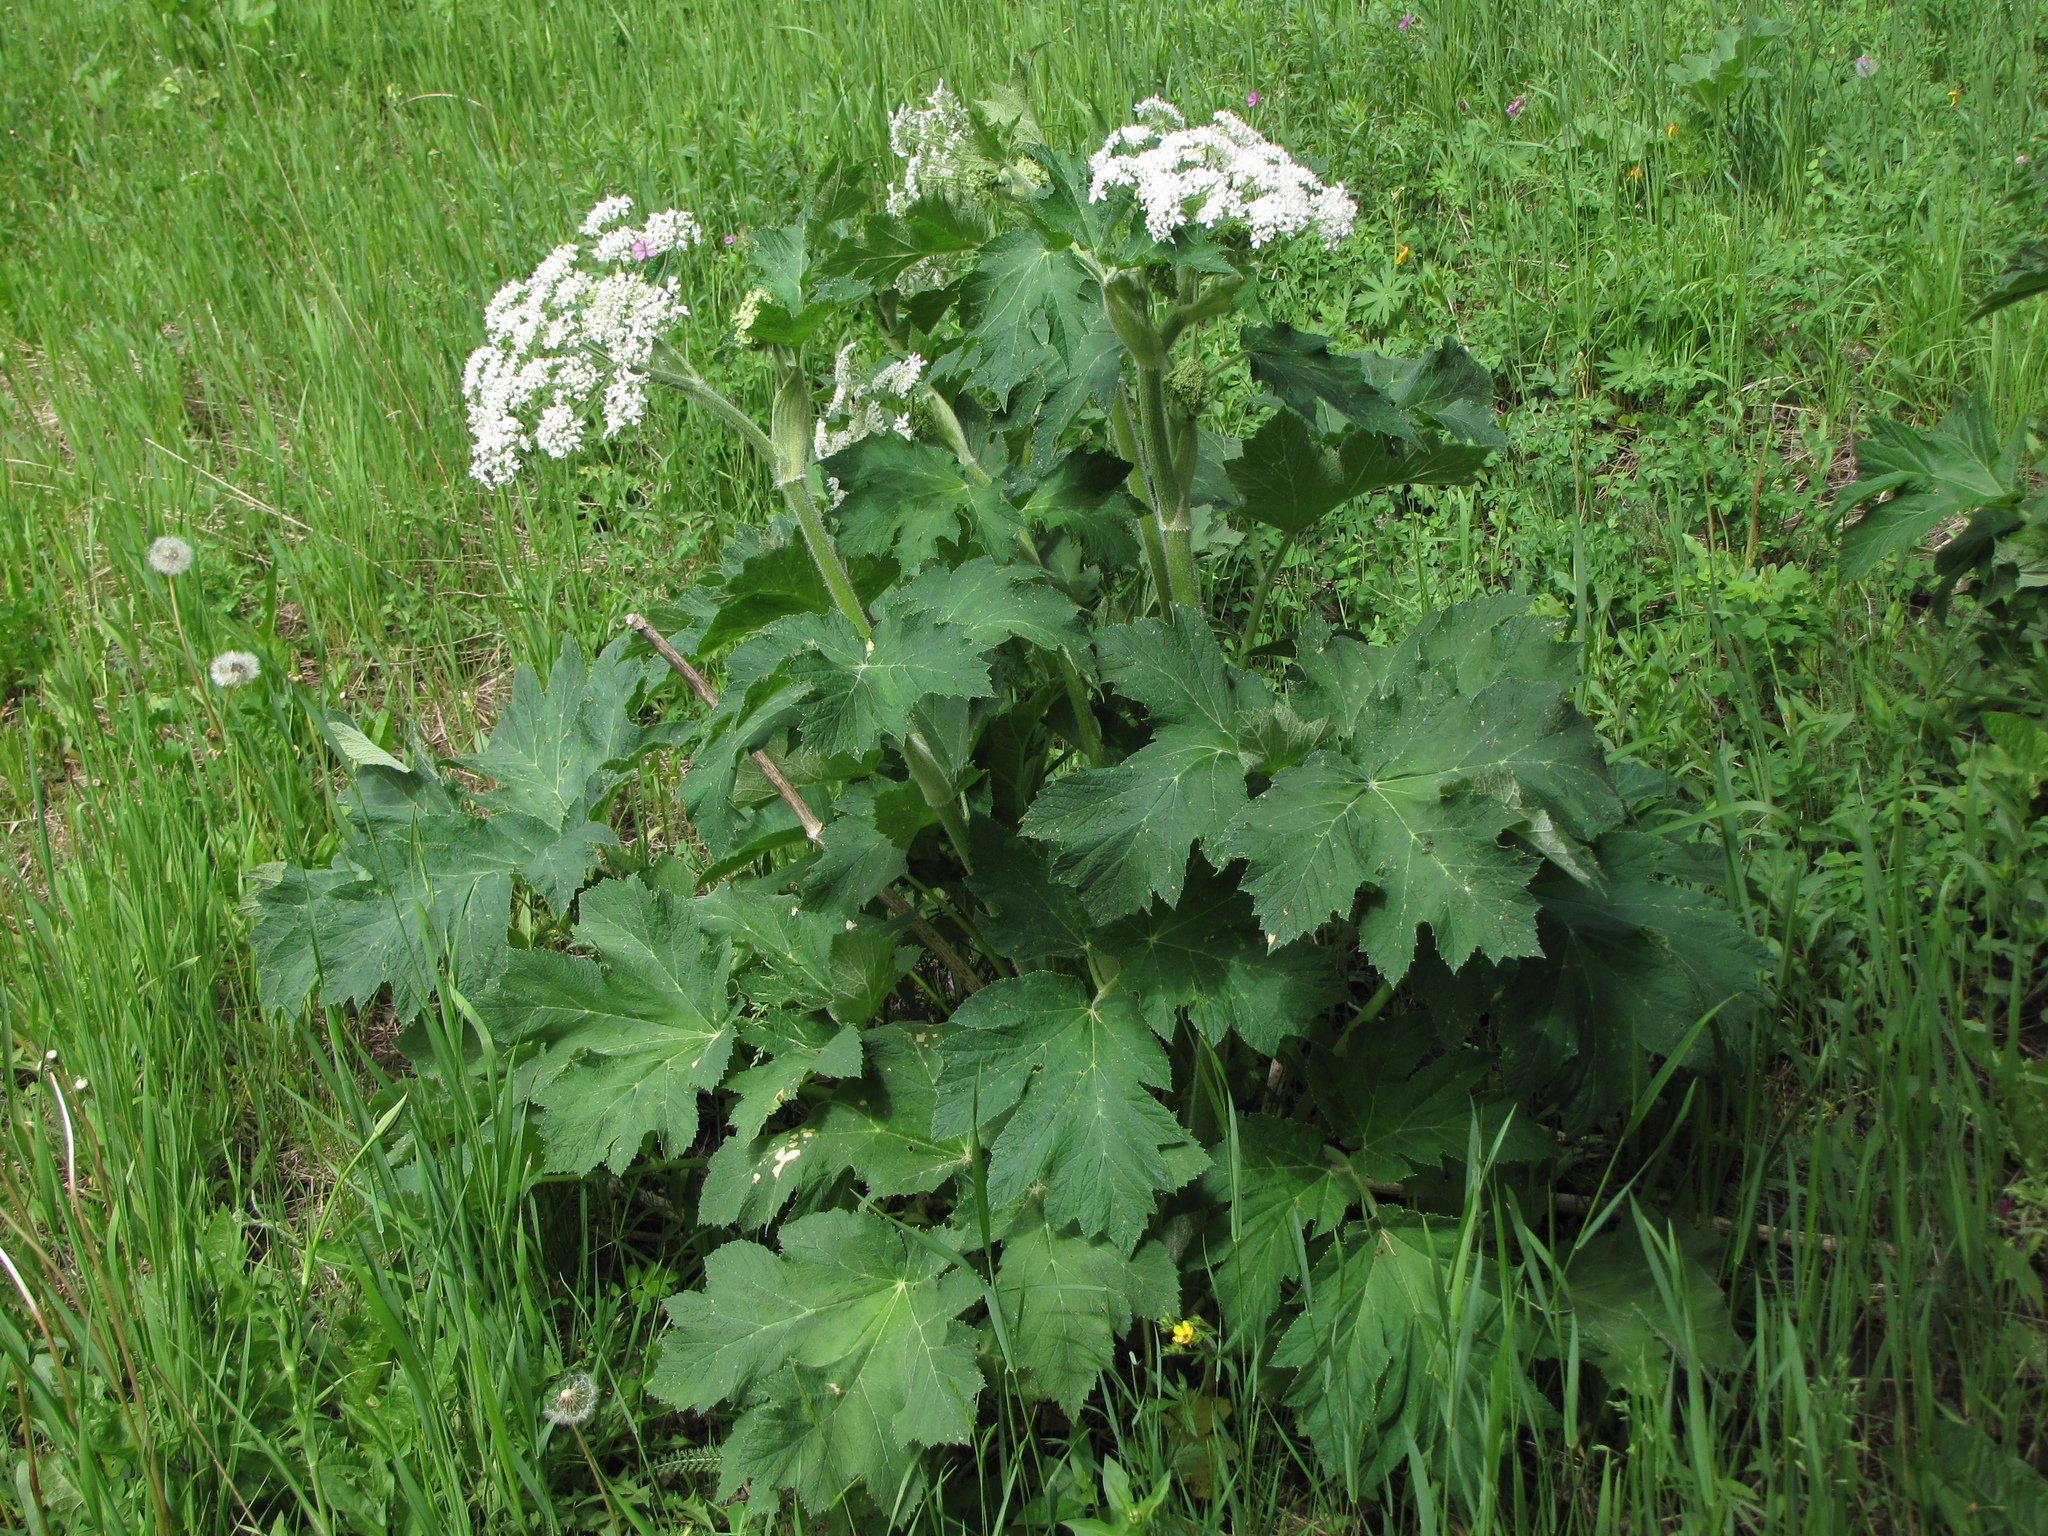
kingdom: Plantae
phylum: Tracheophyta
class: Magnoliopsida
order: Apiales
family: Apiaceae
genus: Heracleum
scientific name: Heracleum maximum
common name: American cow parsnip
